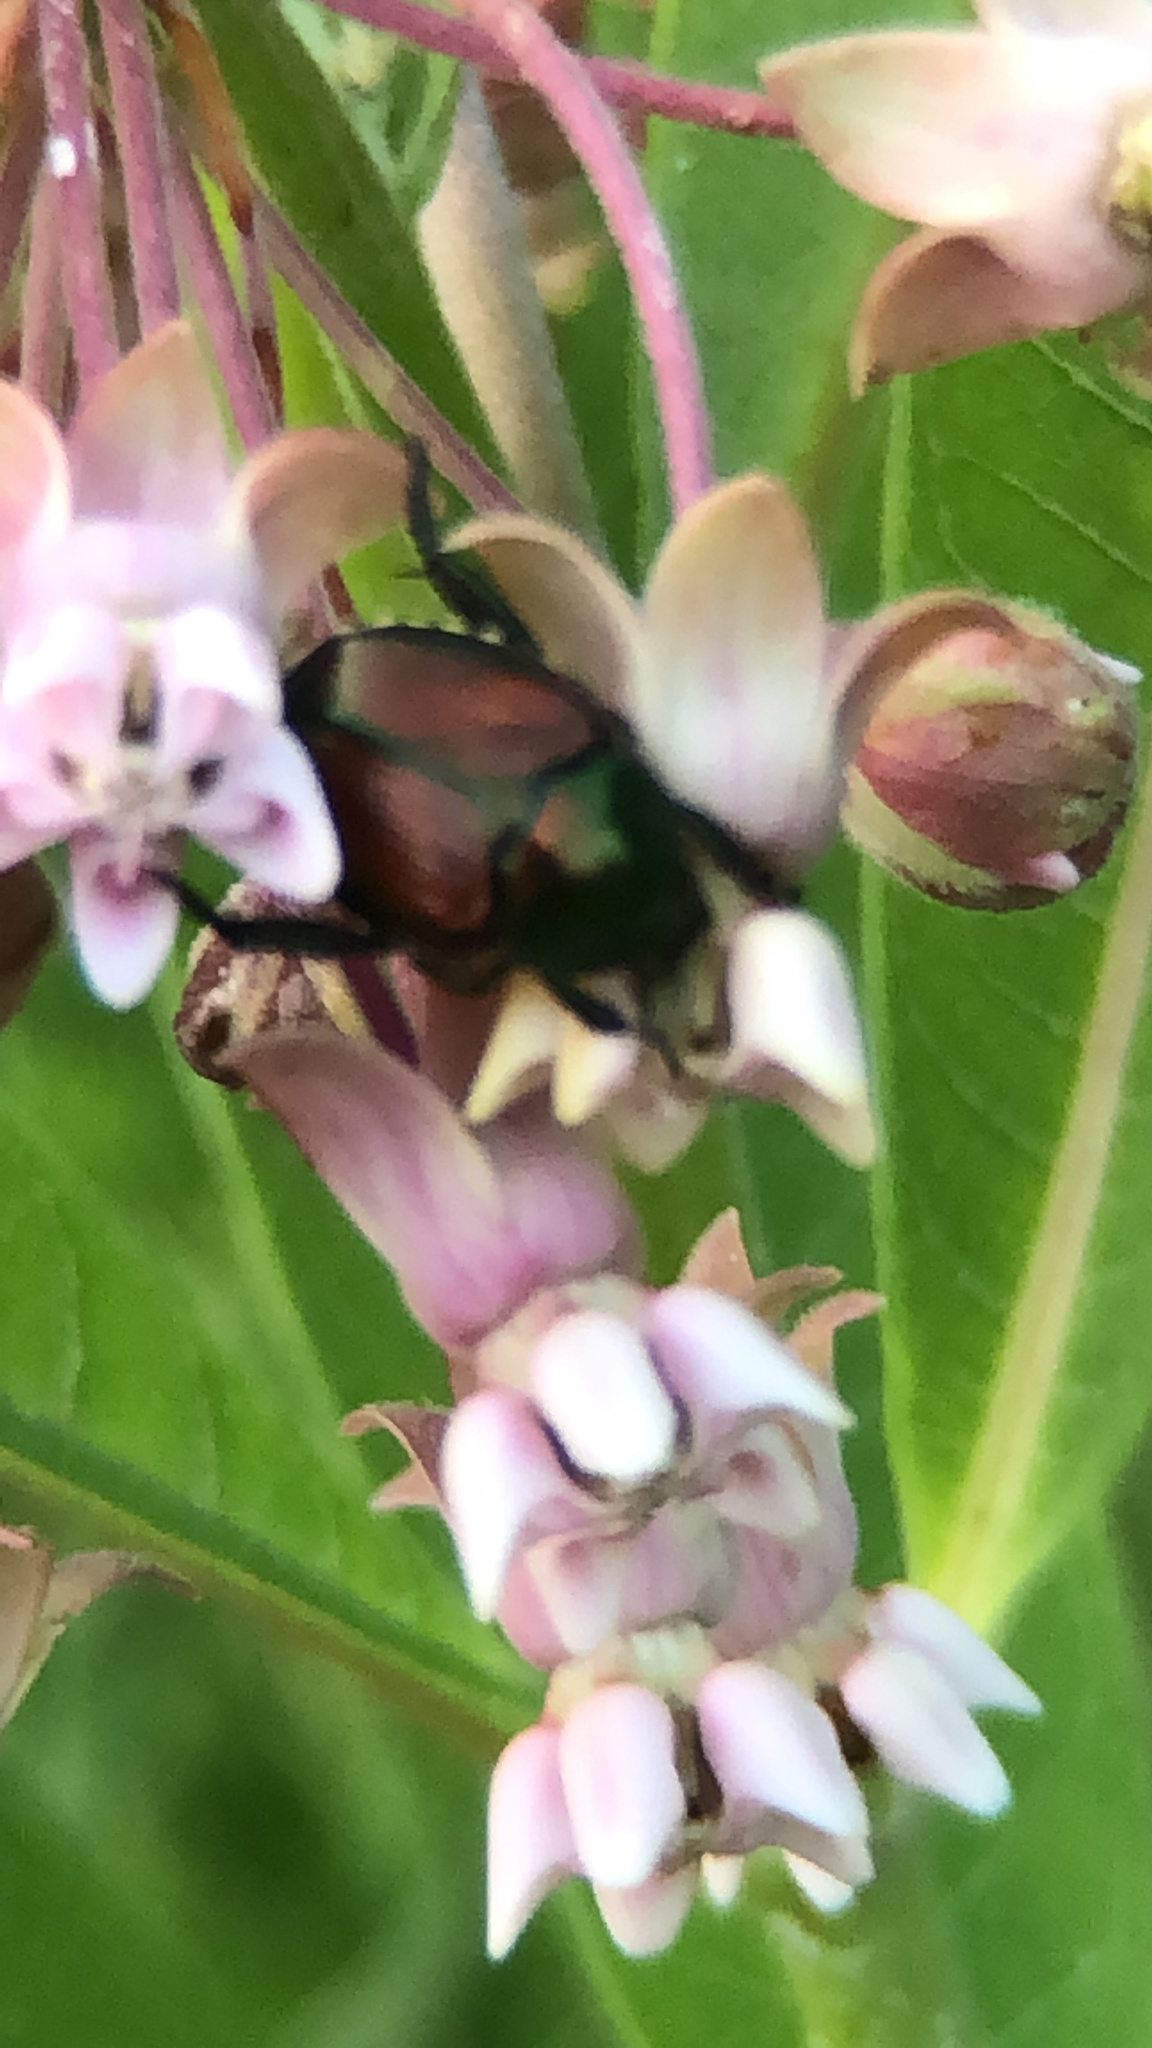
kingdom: Animalia
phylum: Arthropoda
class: Insecta
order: Coleoptera
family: Scarabaeidae
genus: Popillia
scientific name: Popillia japonica
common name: Japanese beetle
